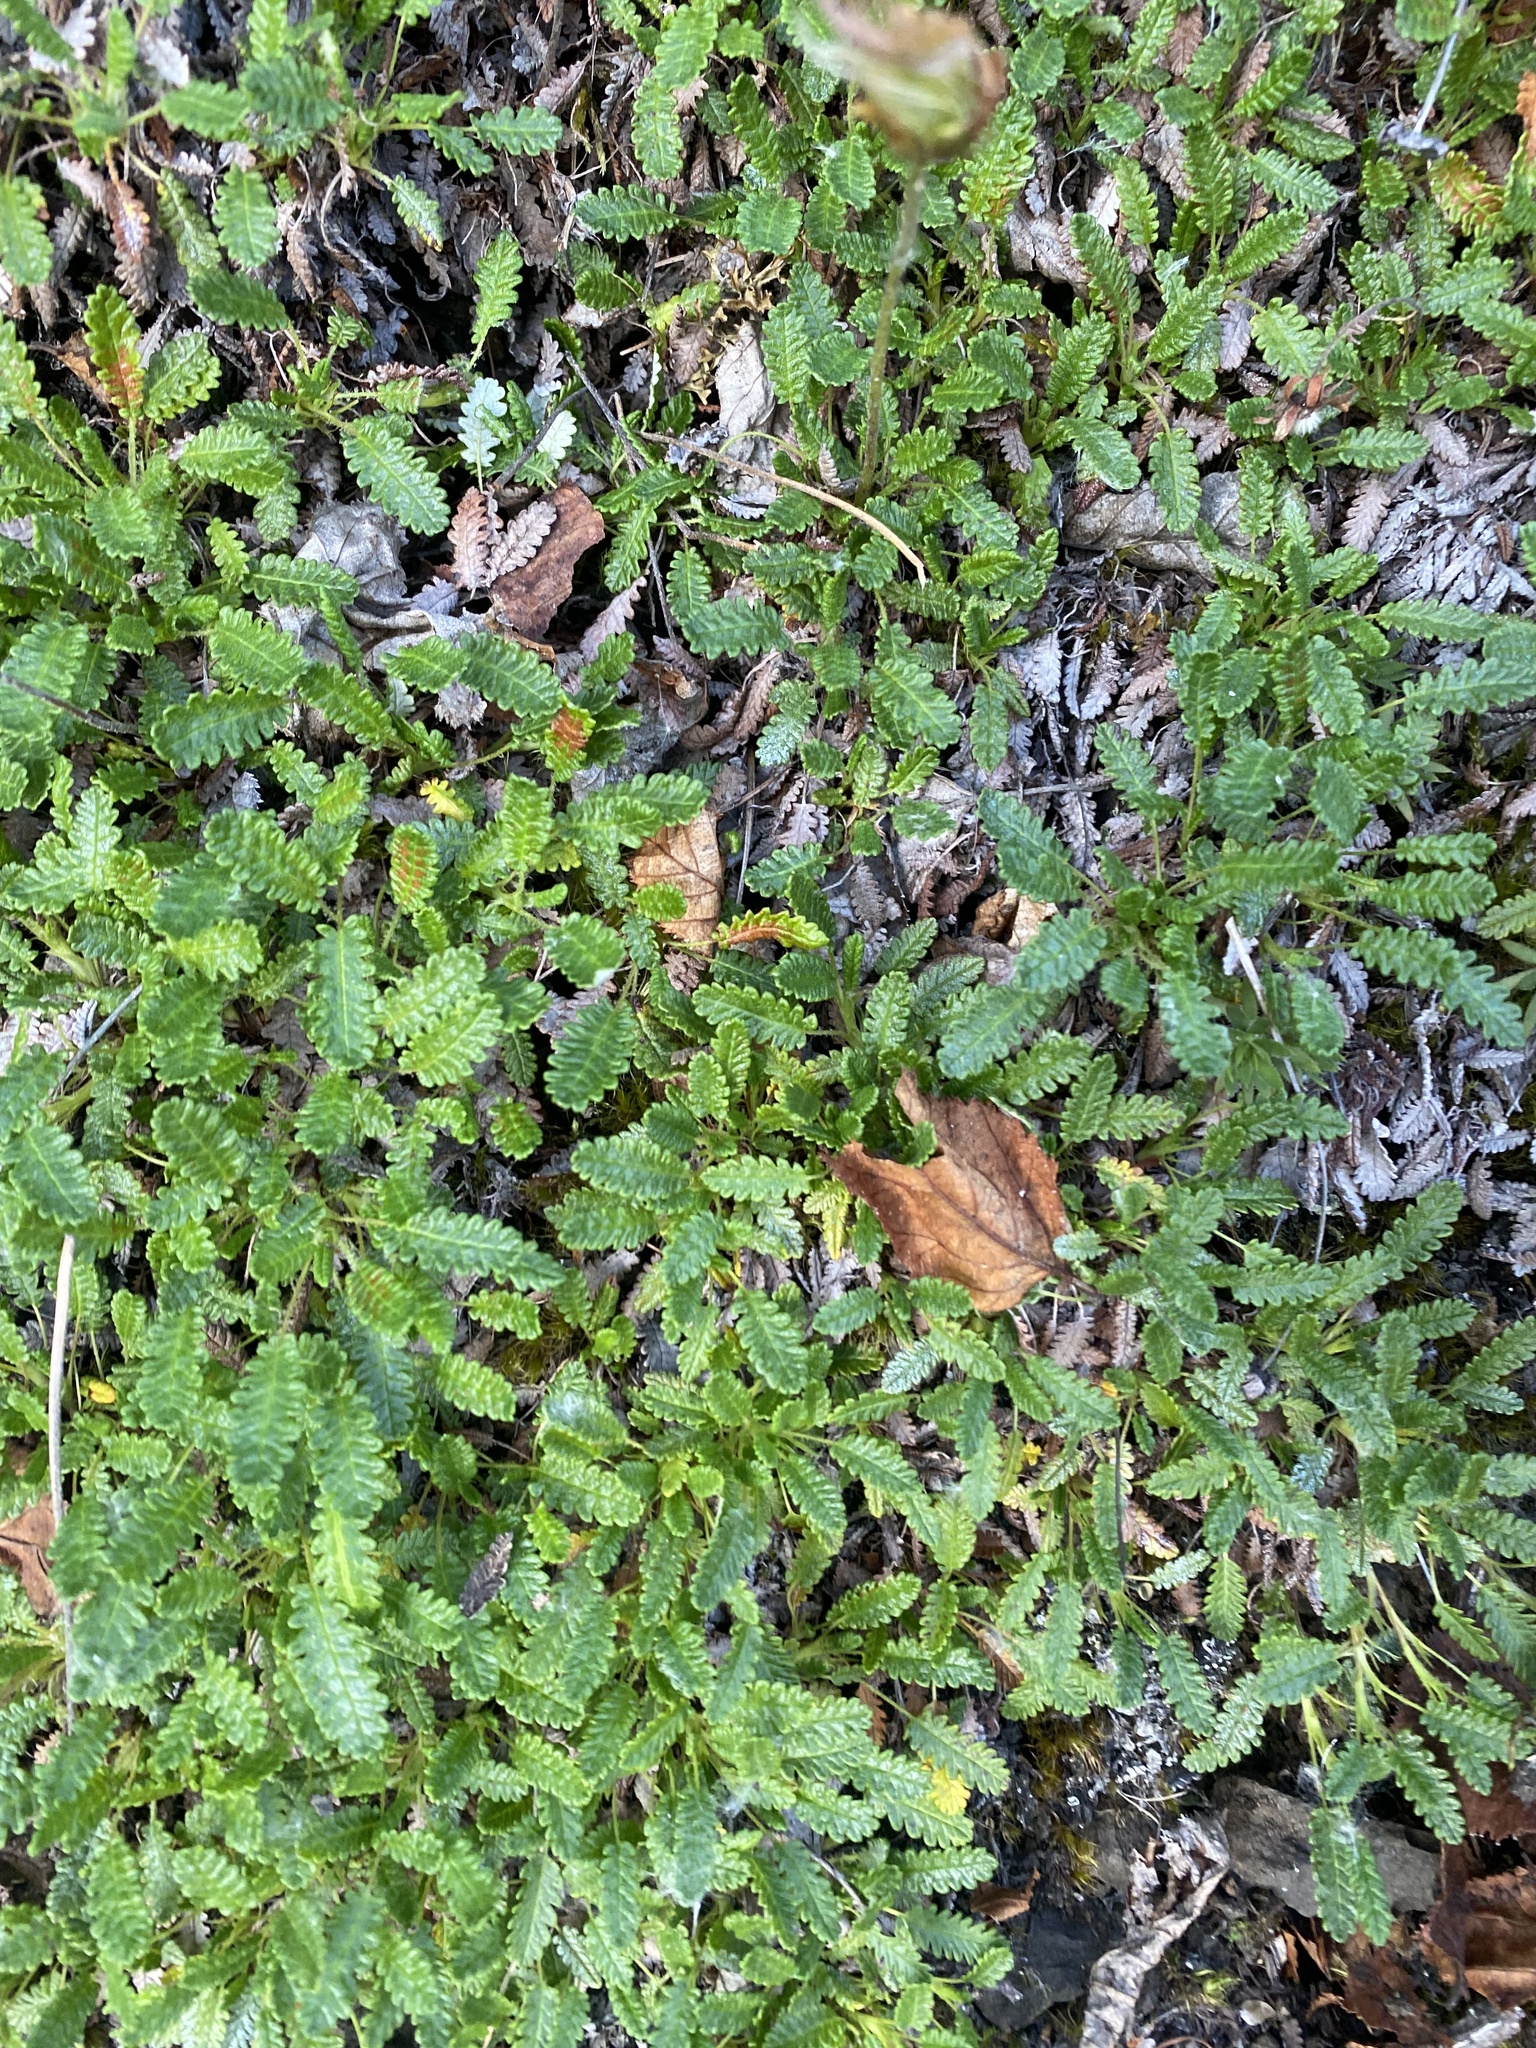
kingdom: Plantae
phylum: Tracheophyta
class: Magnoliopsida
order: Rosales
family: Rosaceae
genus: Dryas
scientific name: Dryas octopetala
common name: Eight-petal mountain-avens
